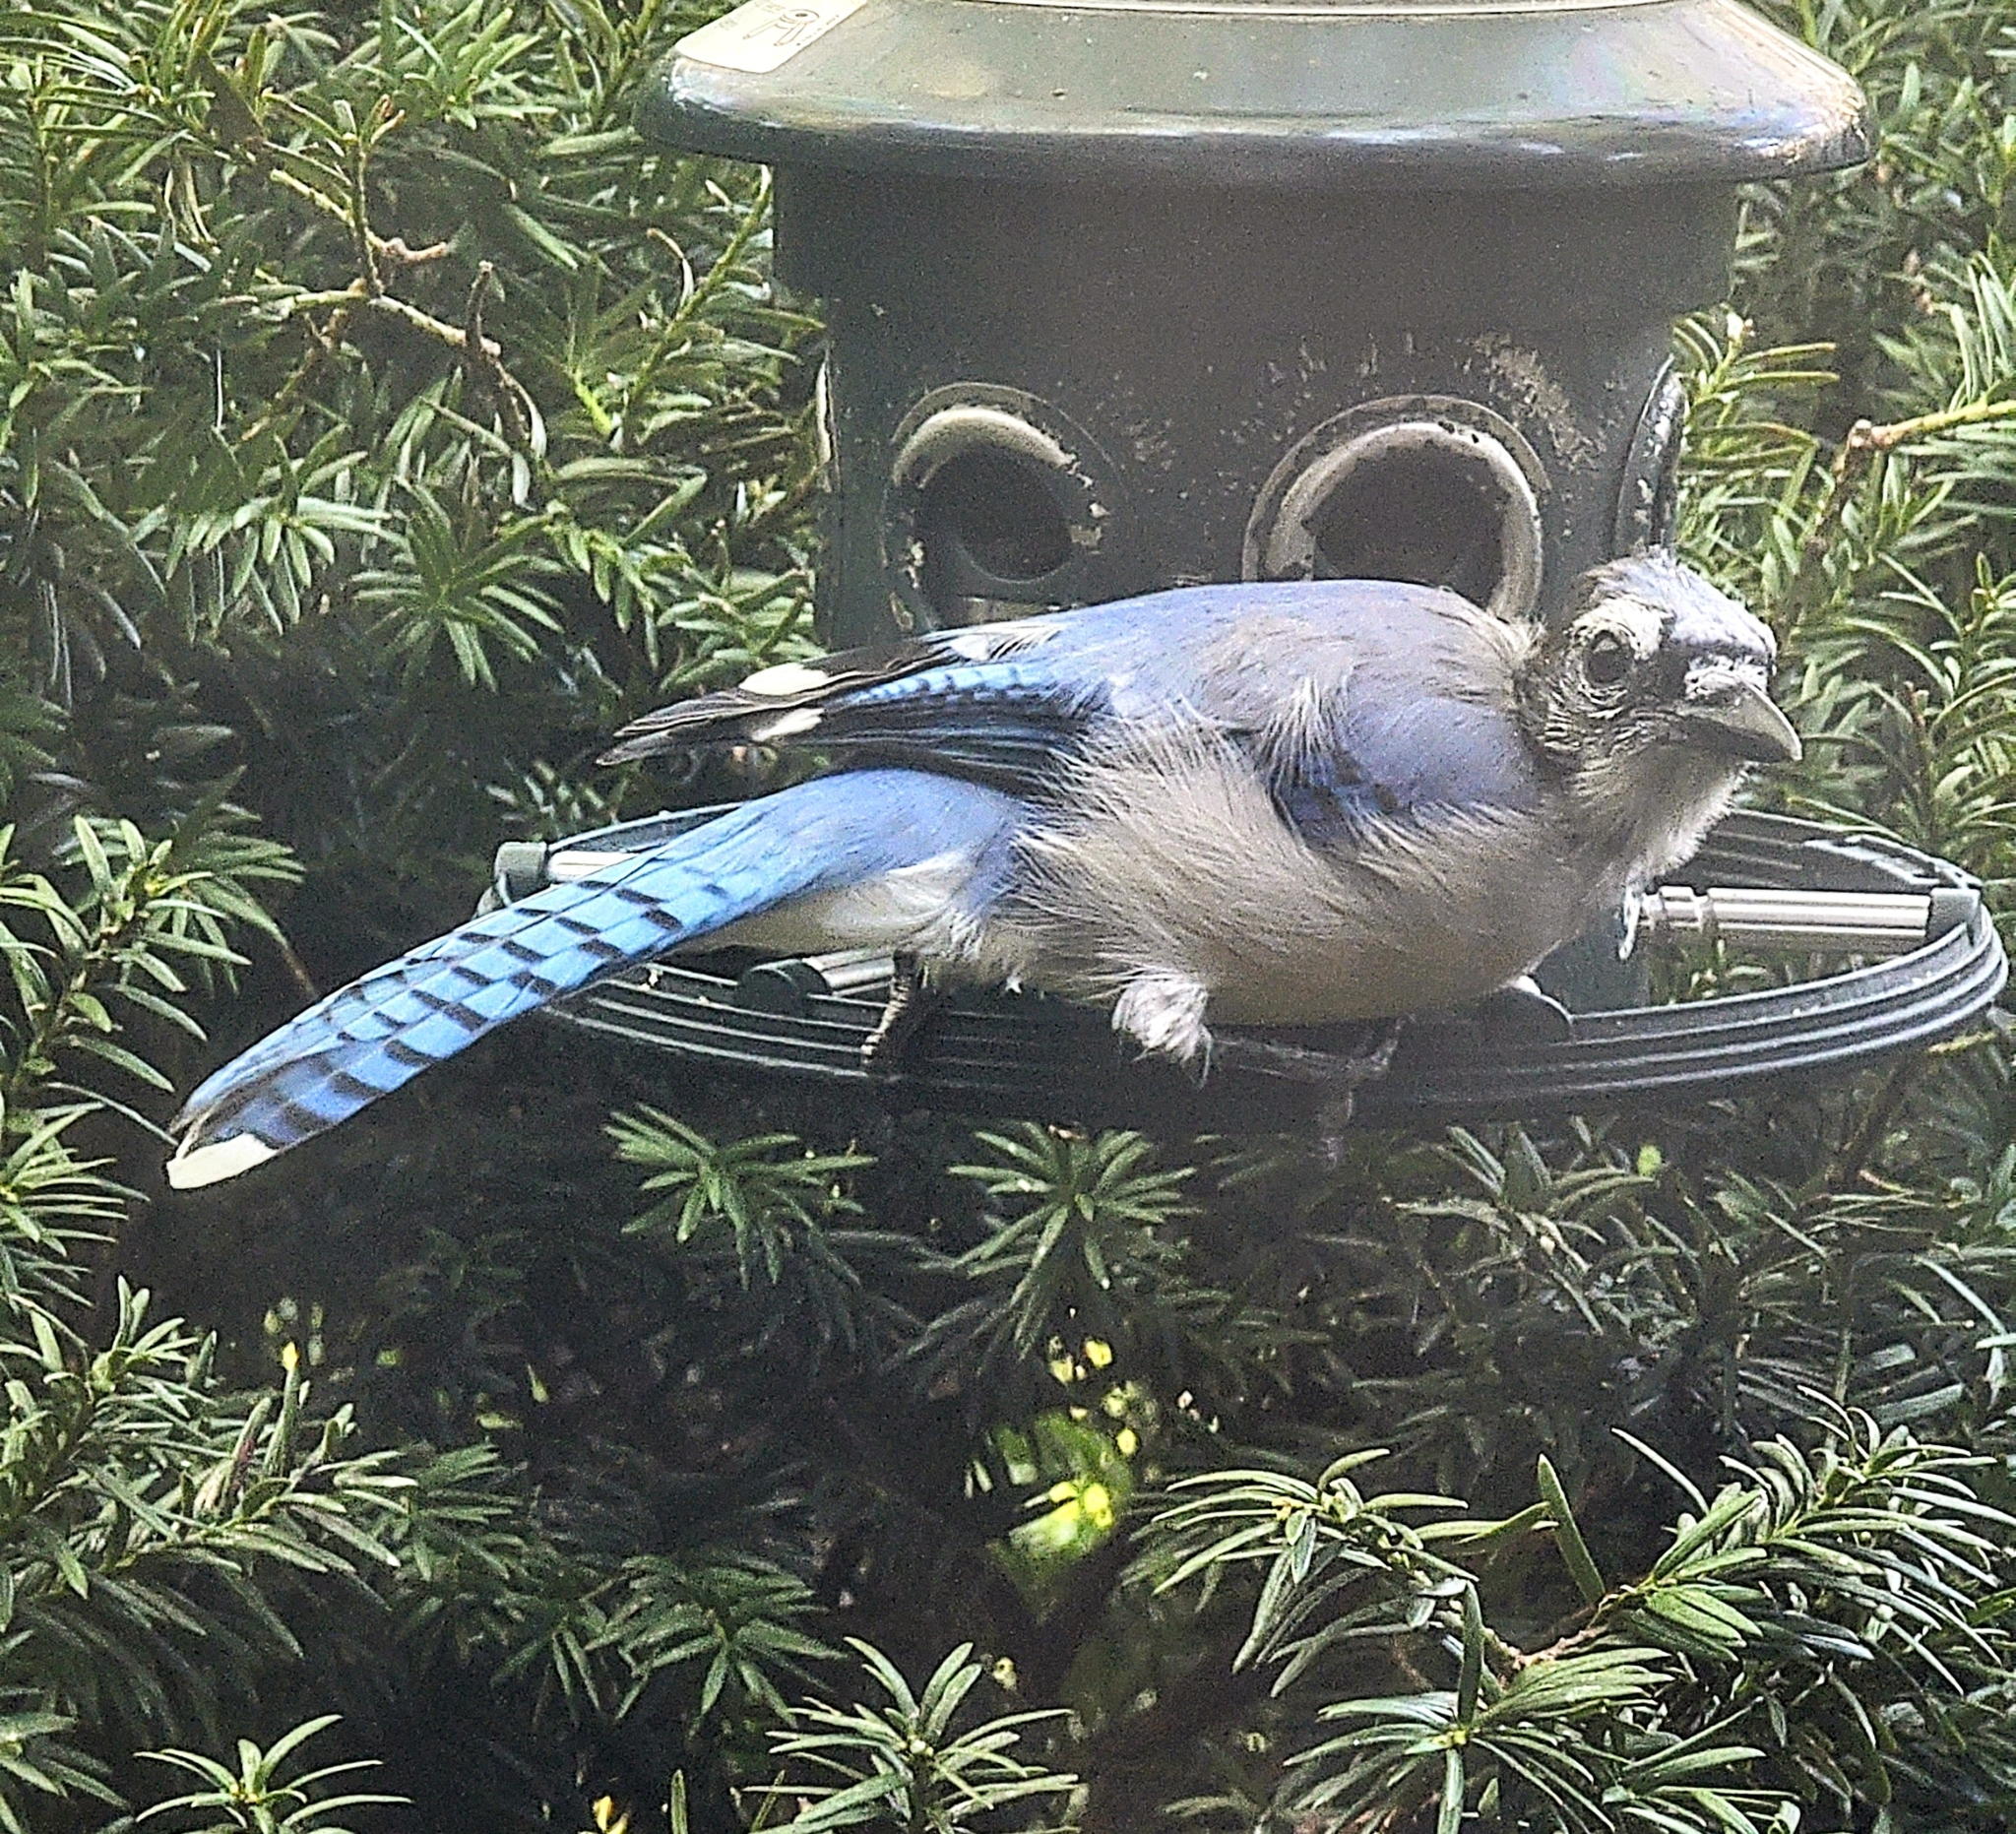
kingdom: Animalia
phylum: Chordata
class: Aves
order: Passeriformes
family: Corvidae
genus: Cyanocitta
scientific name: Cyanocitta cristata
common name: Blue jay
